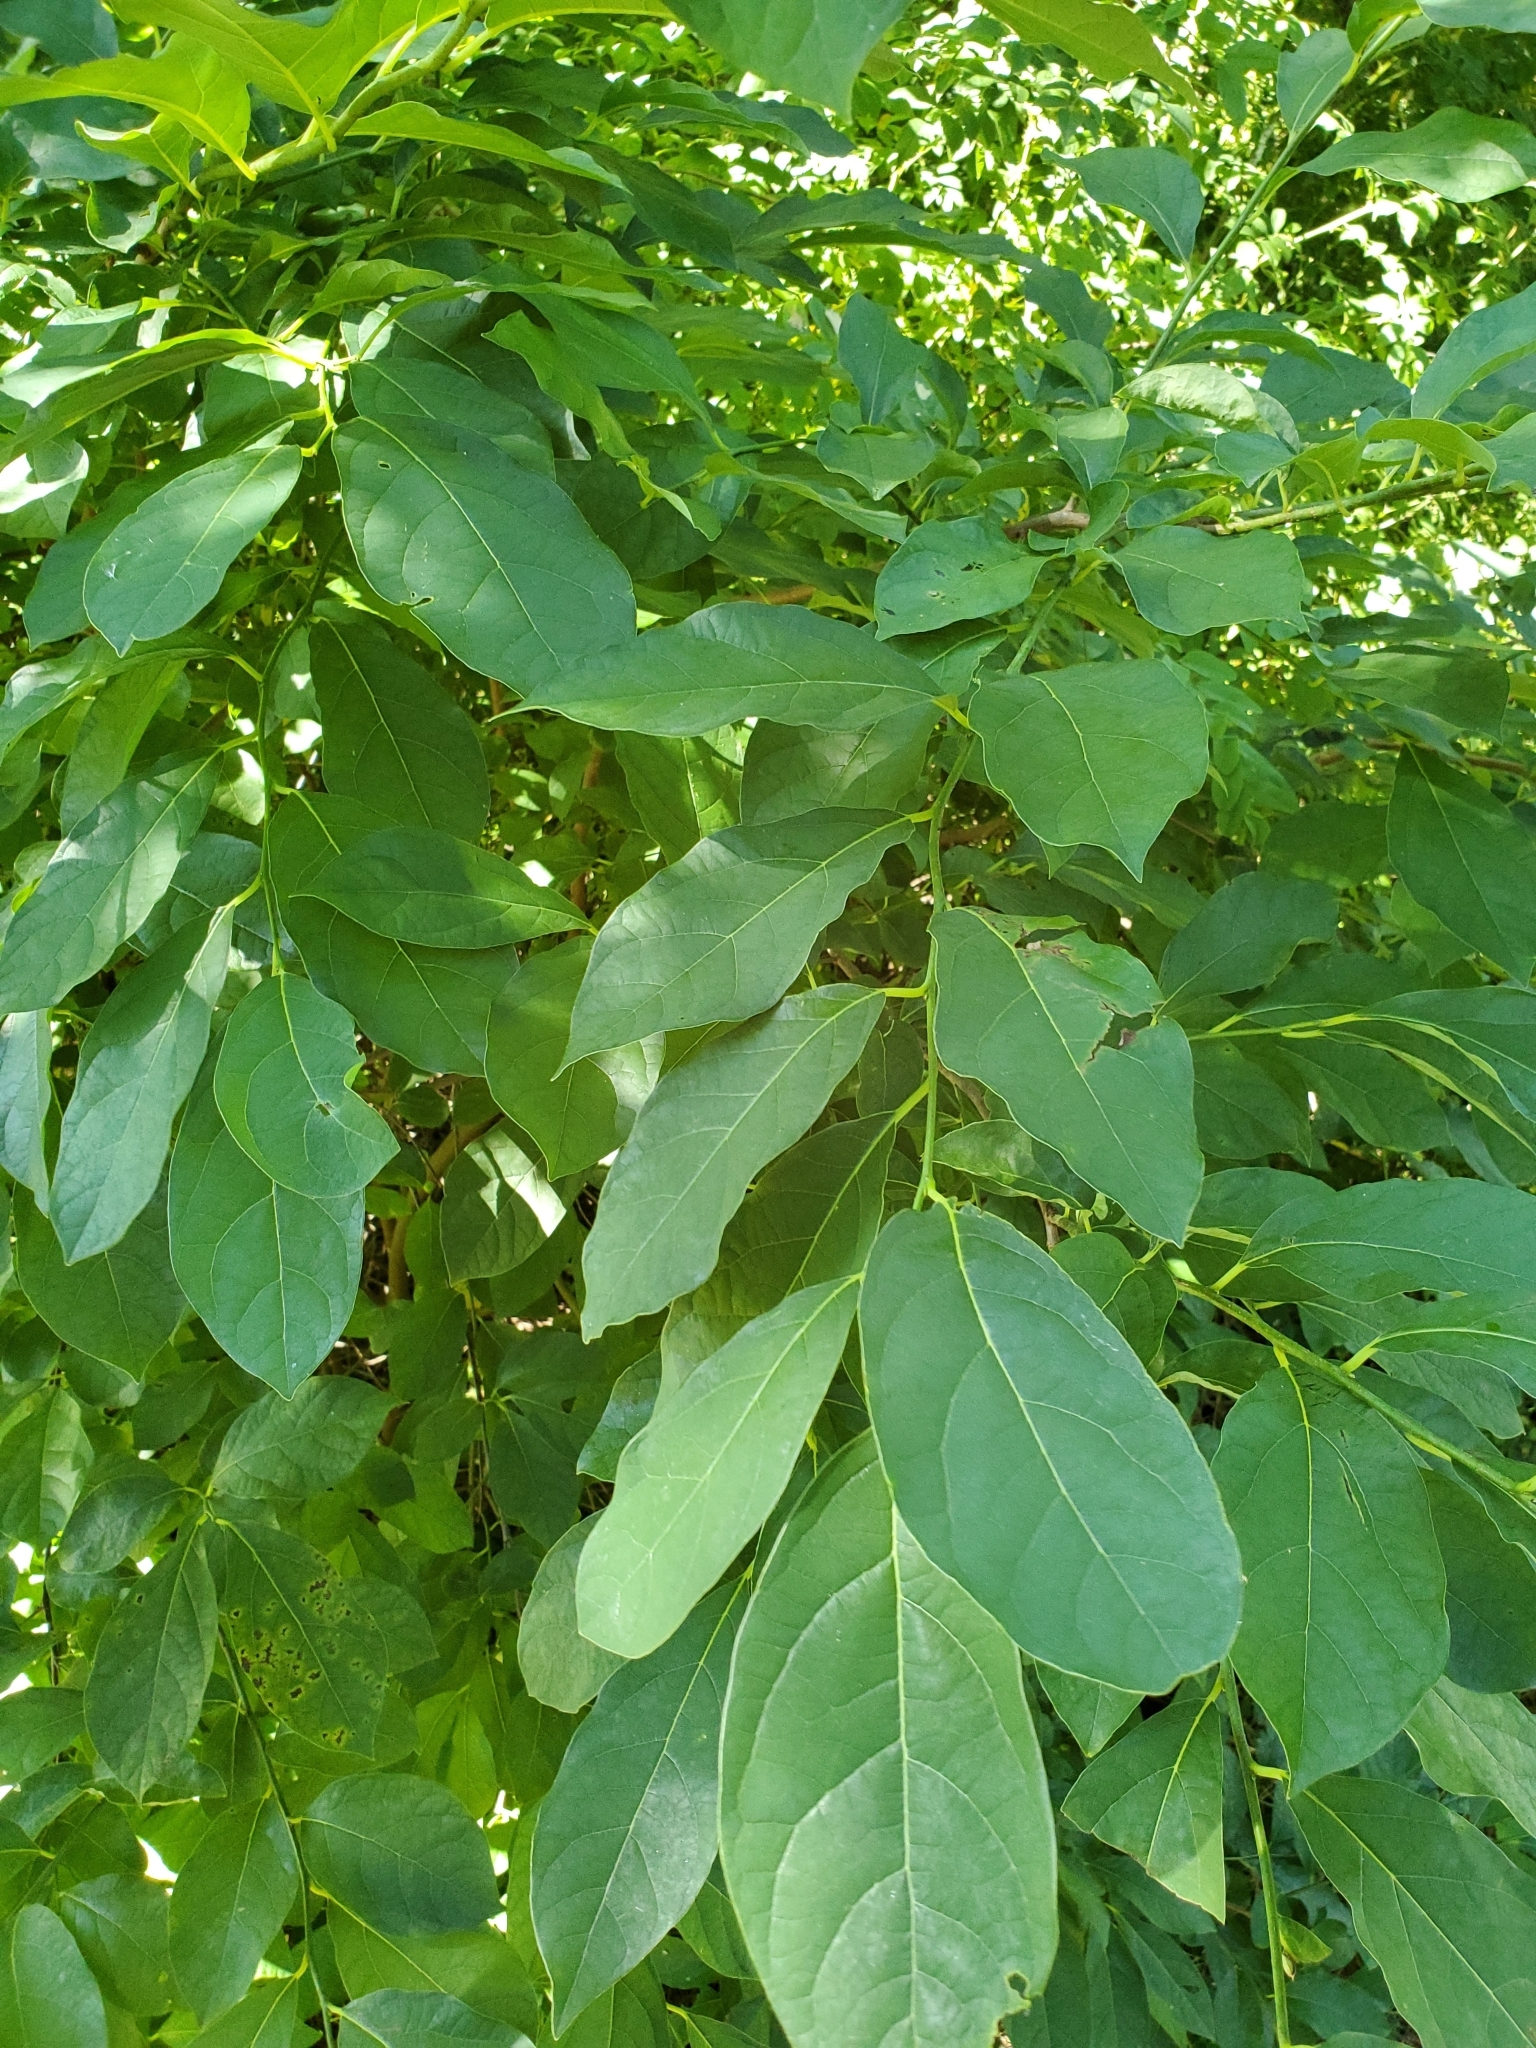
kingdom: Plantae
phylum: Tracheophyta
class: Magnoliopsida
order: Laurales
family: Lauraceae
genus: Lindera
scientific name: Lindera benzoin
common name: Spicebush
